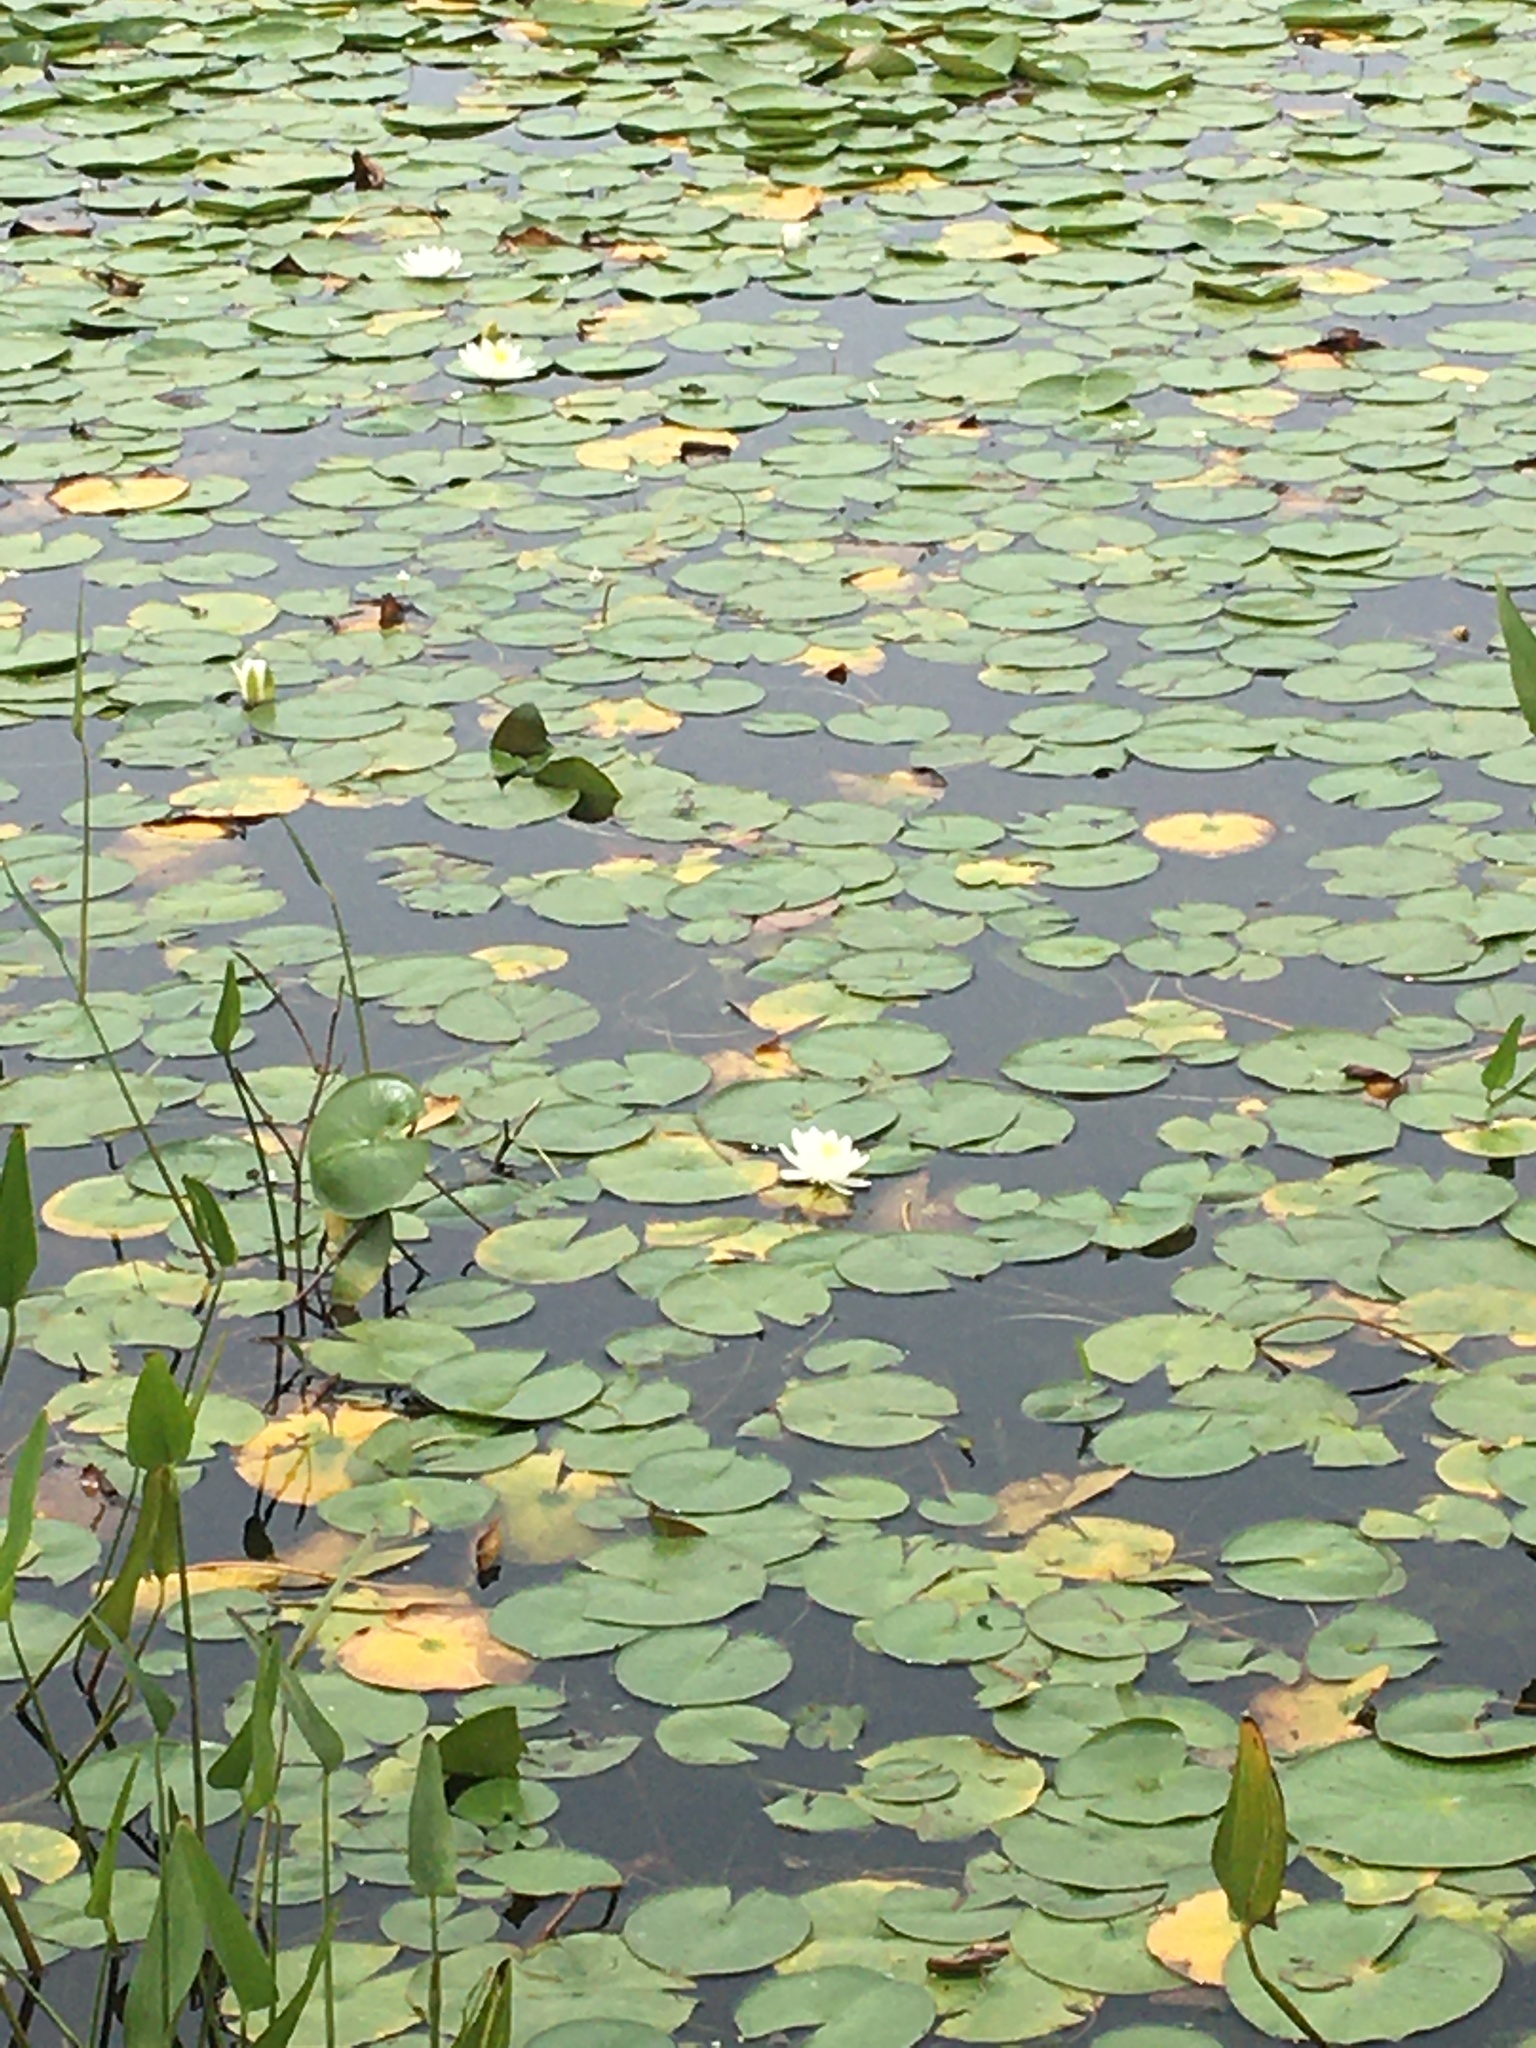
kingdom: Plantae
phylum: Tracheophyta
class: Magnoliopsida
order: Nymphaeales
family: Nymphaeaceae
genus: Nymphaea
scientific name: Nymphaea odorata
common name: Fragrant water-lily
